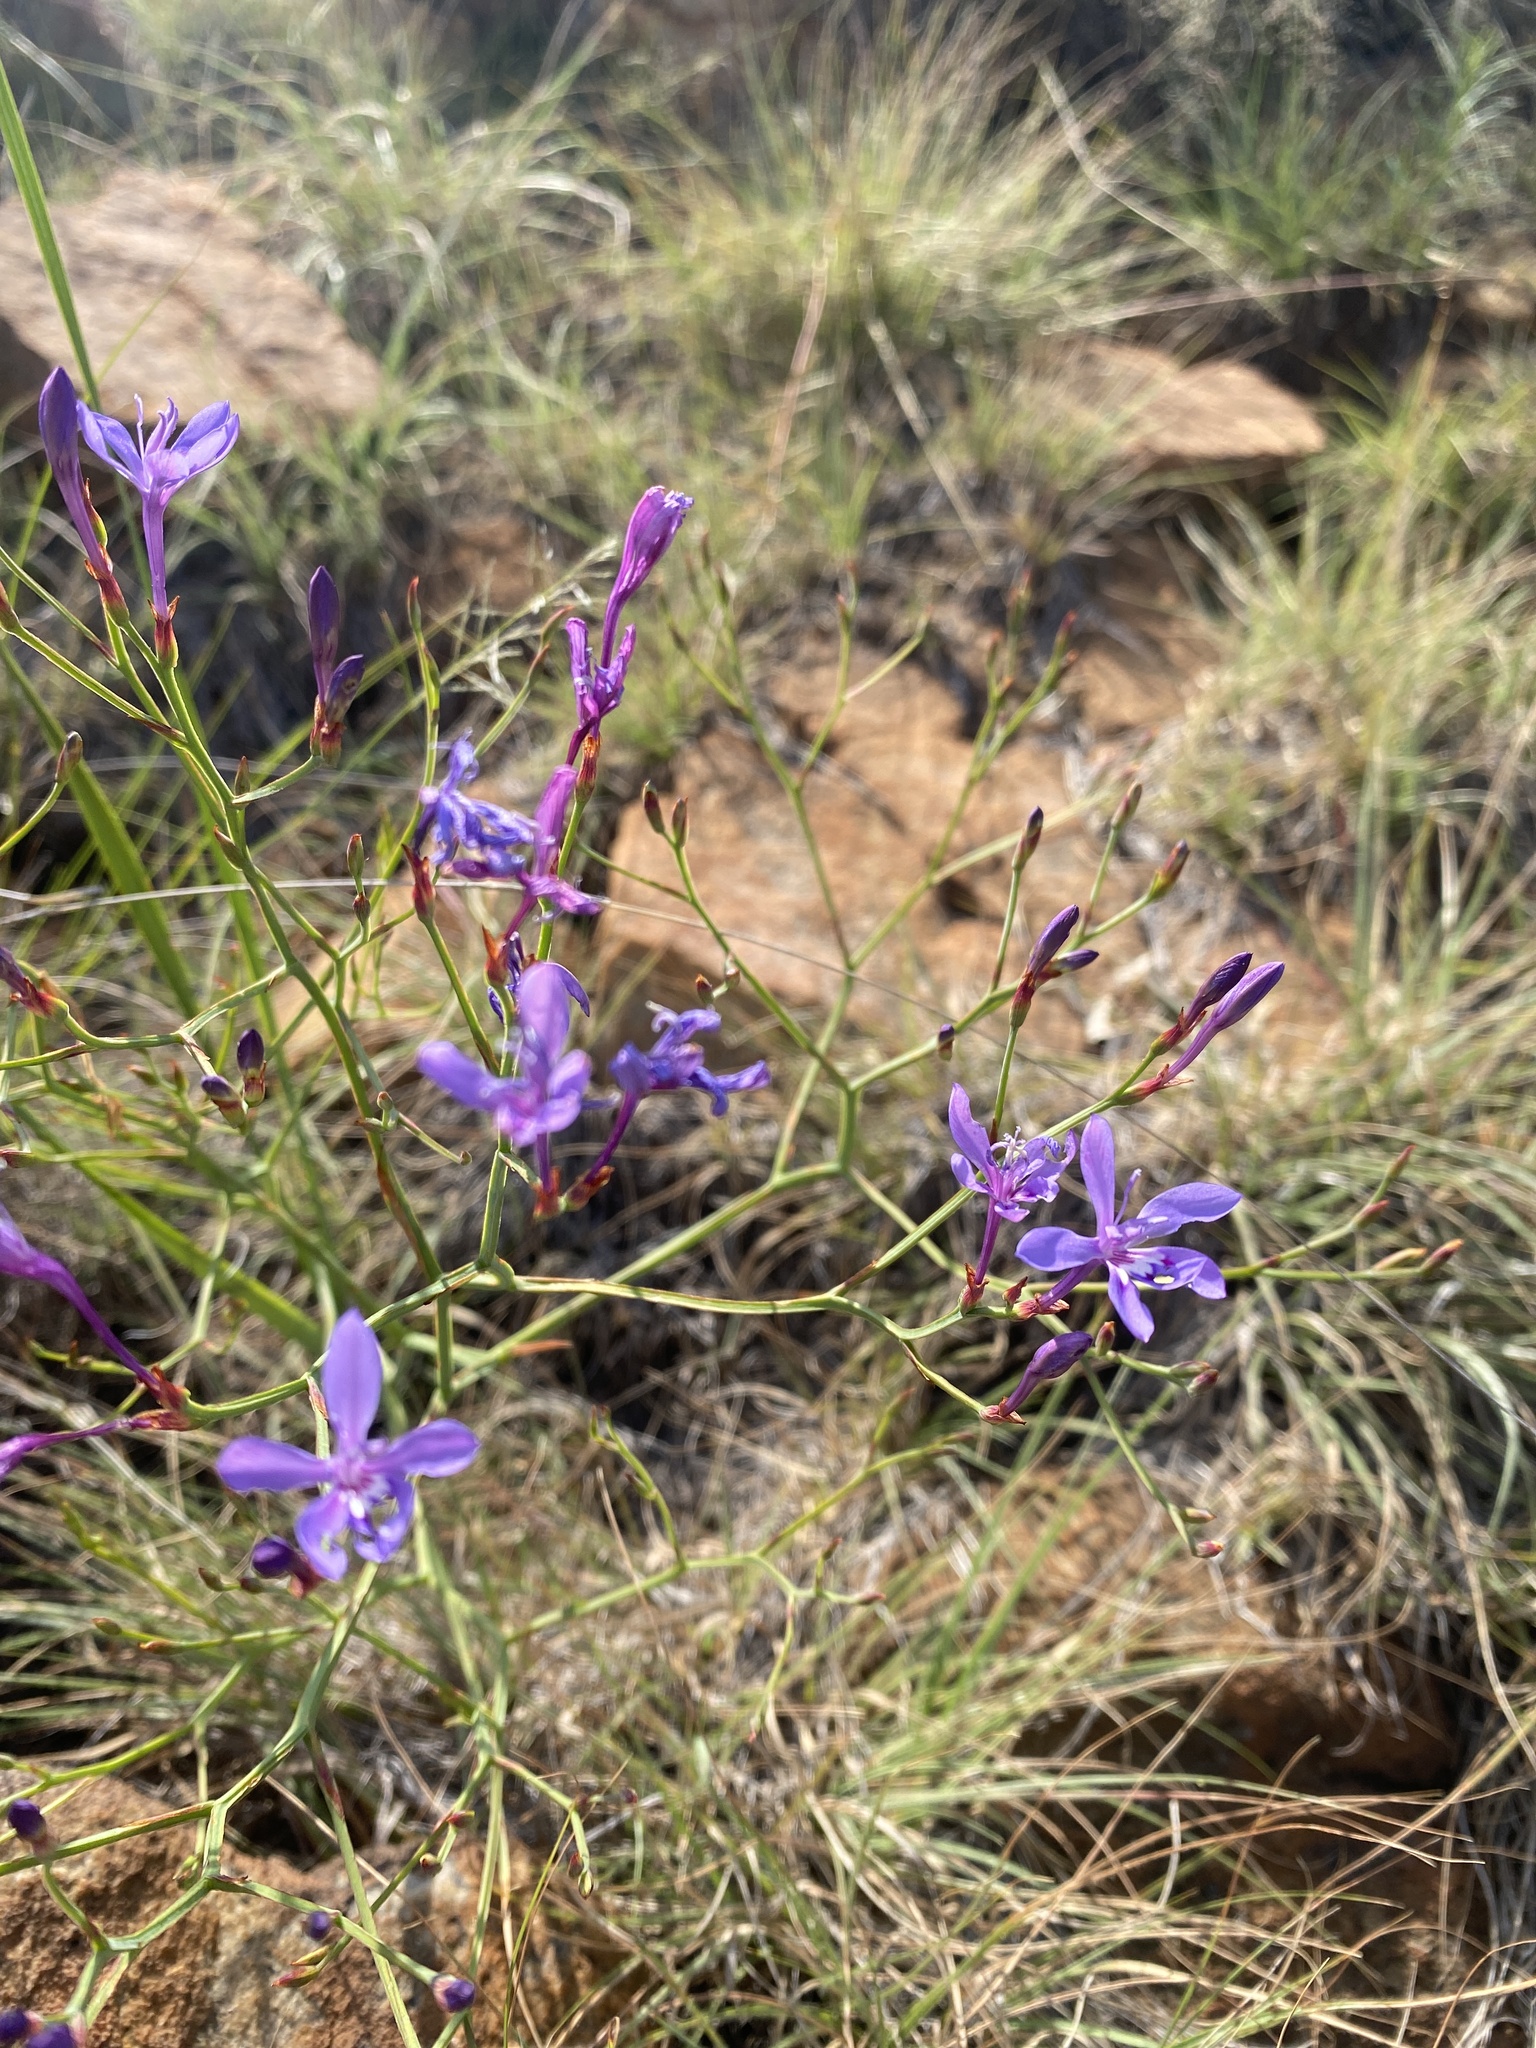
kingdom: Plantae
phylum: Tracheophyta
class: Liliopsida
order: Asparagales
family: Iridaceae
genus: Afrosolen
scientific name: Afrosolen sandersonii
